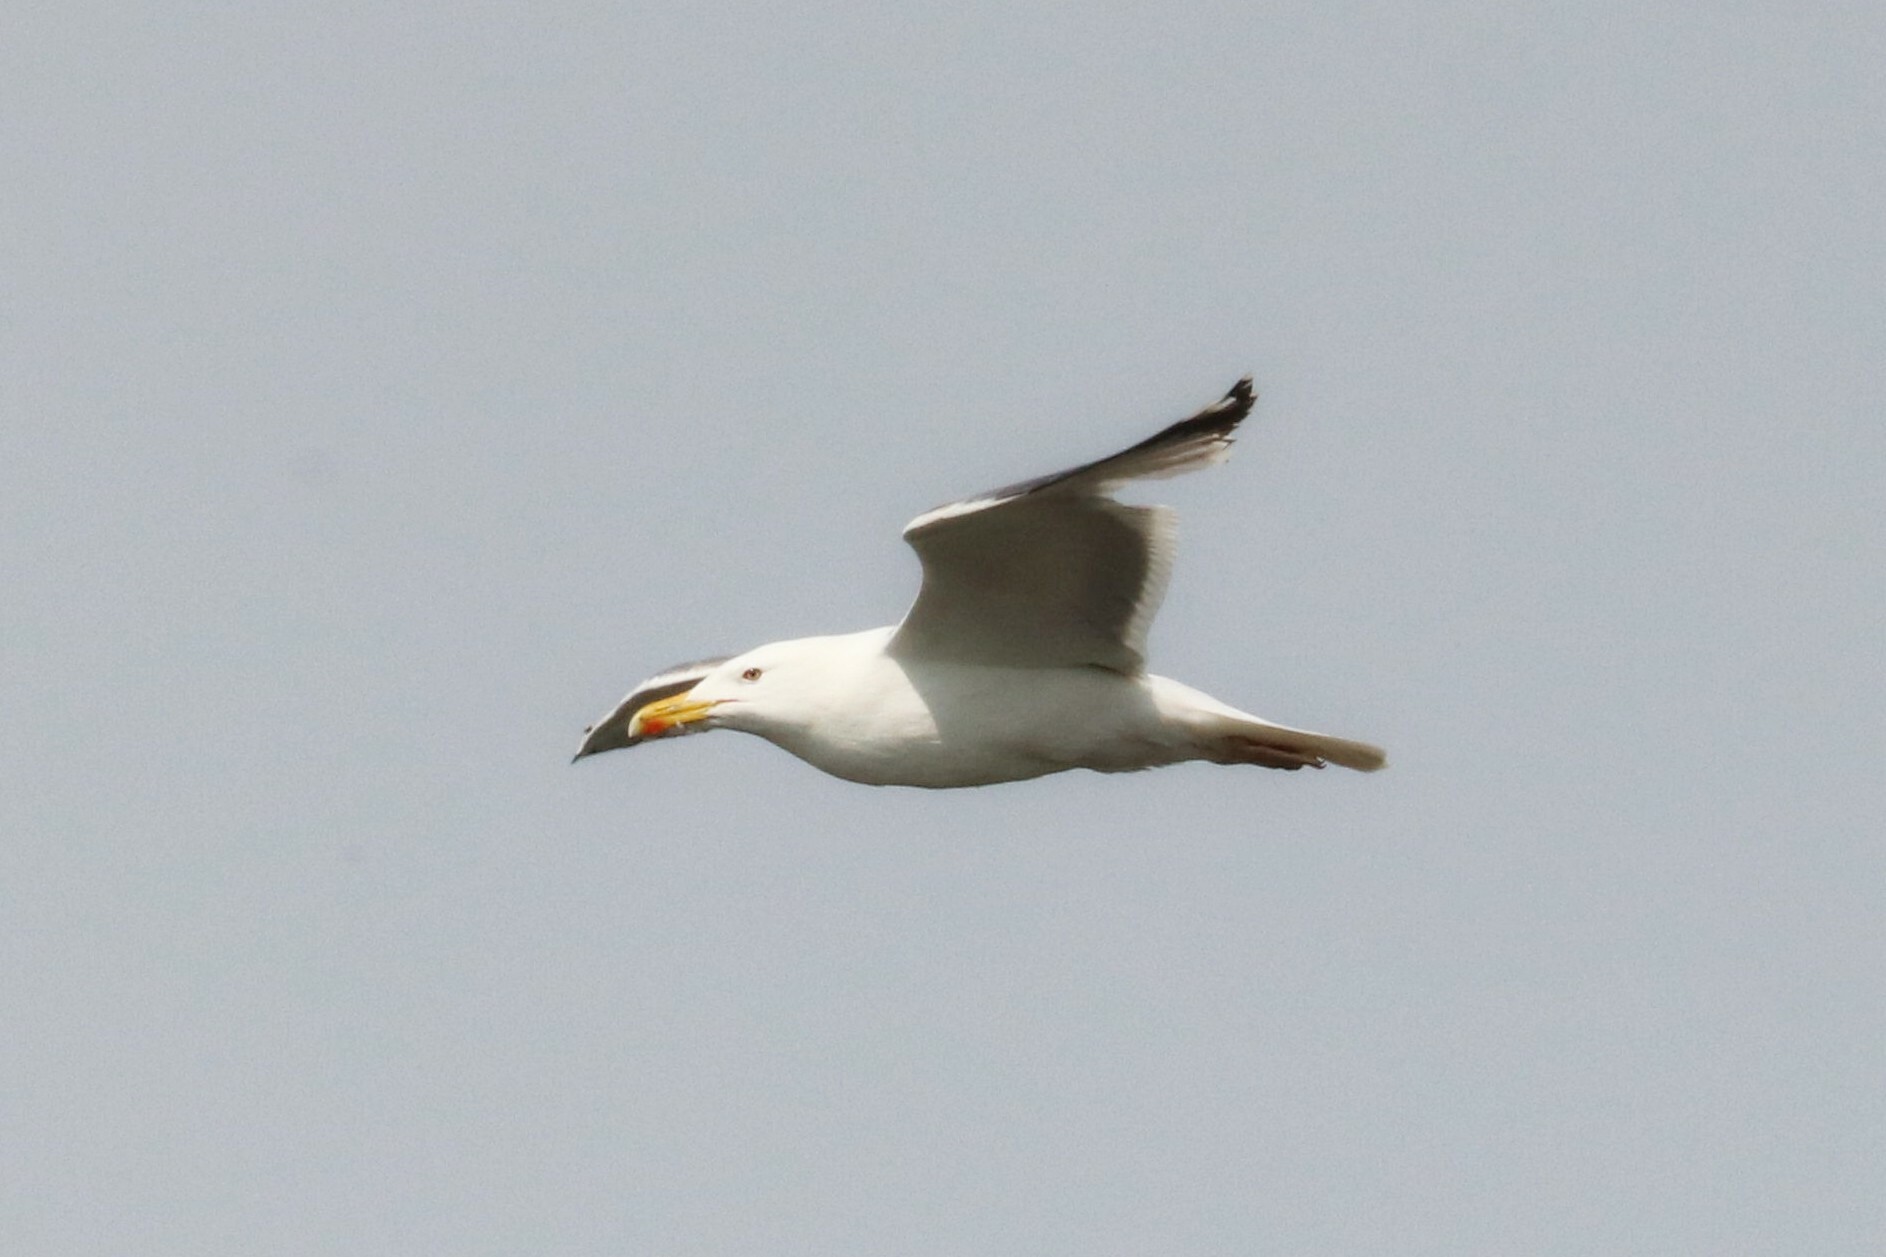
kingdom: Animalia
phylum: Chordata
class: Aves
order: Charadriiformes
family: Laridae
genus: Larus
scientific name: Larus cachinnans
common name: Caspian gull
